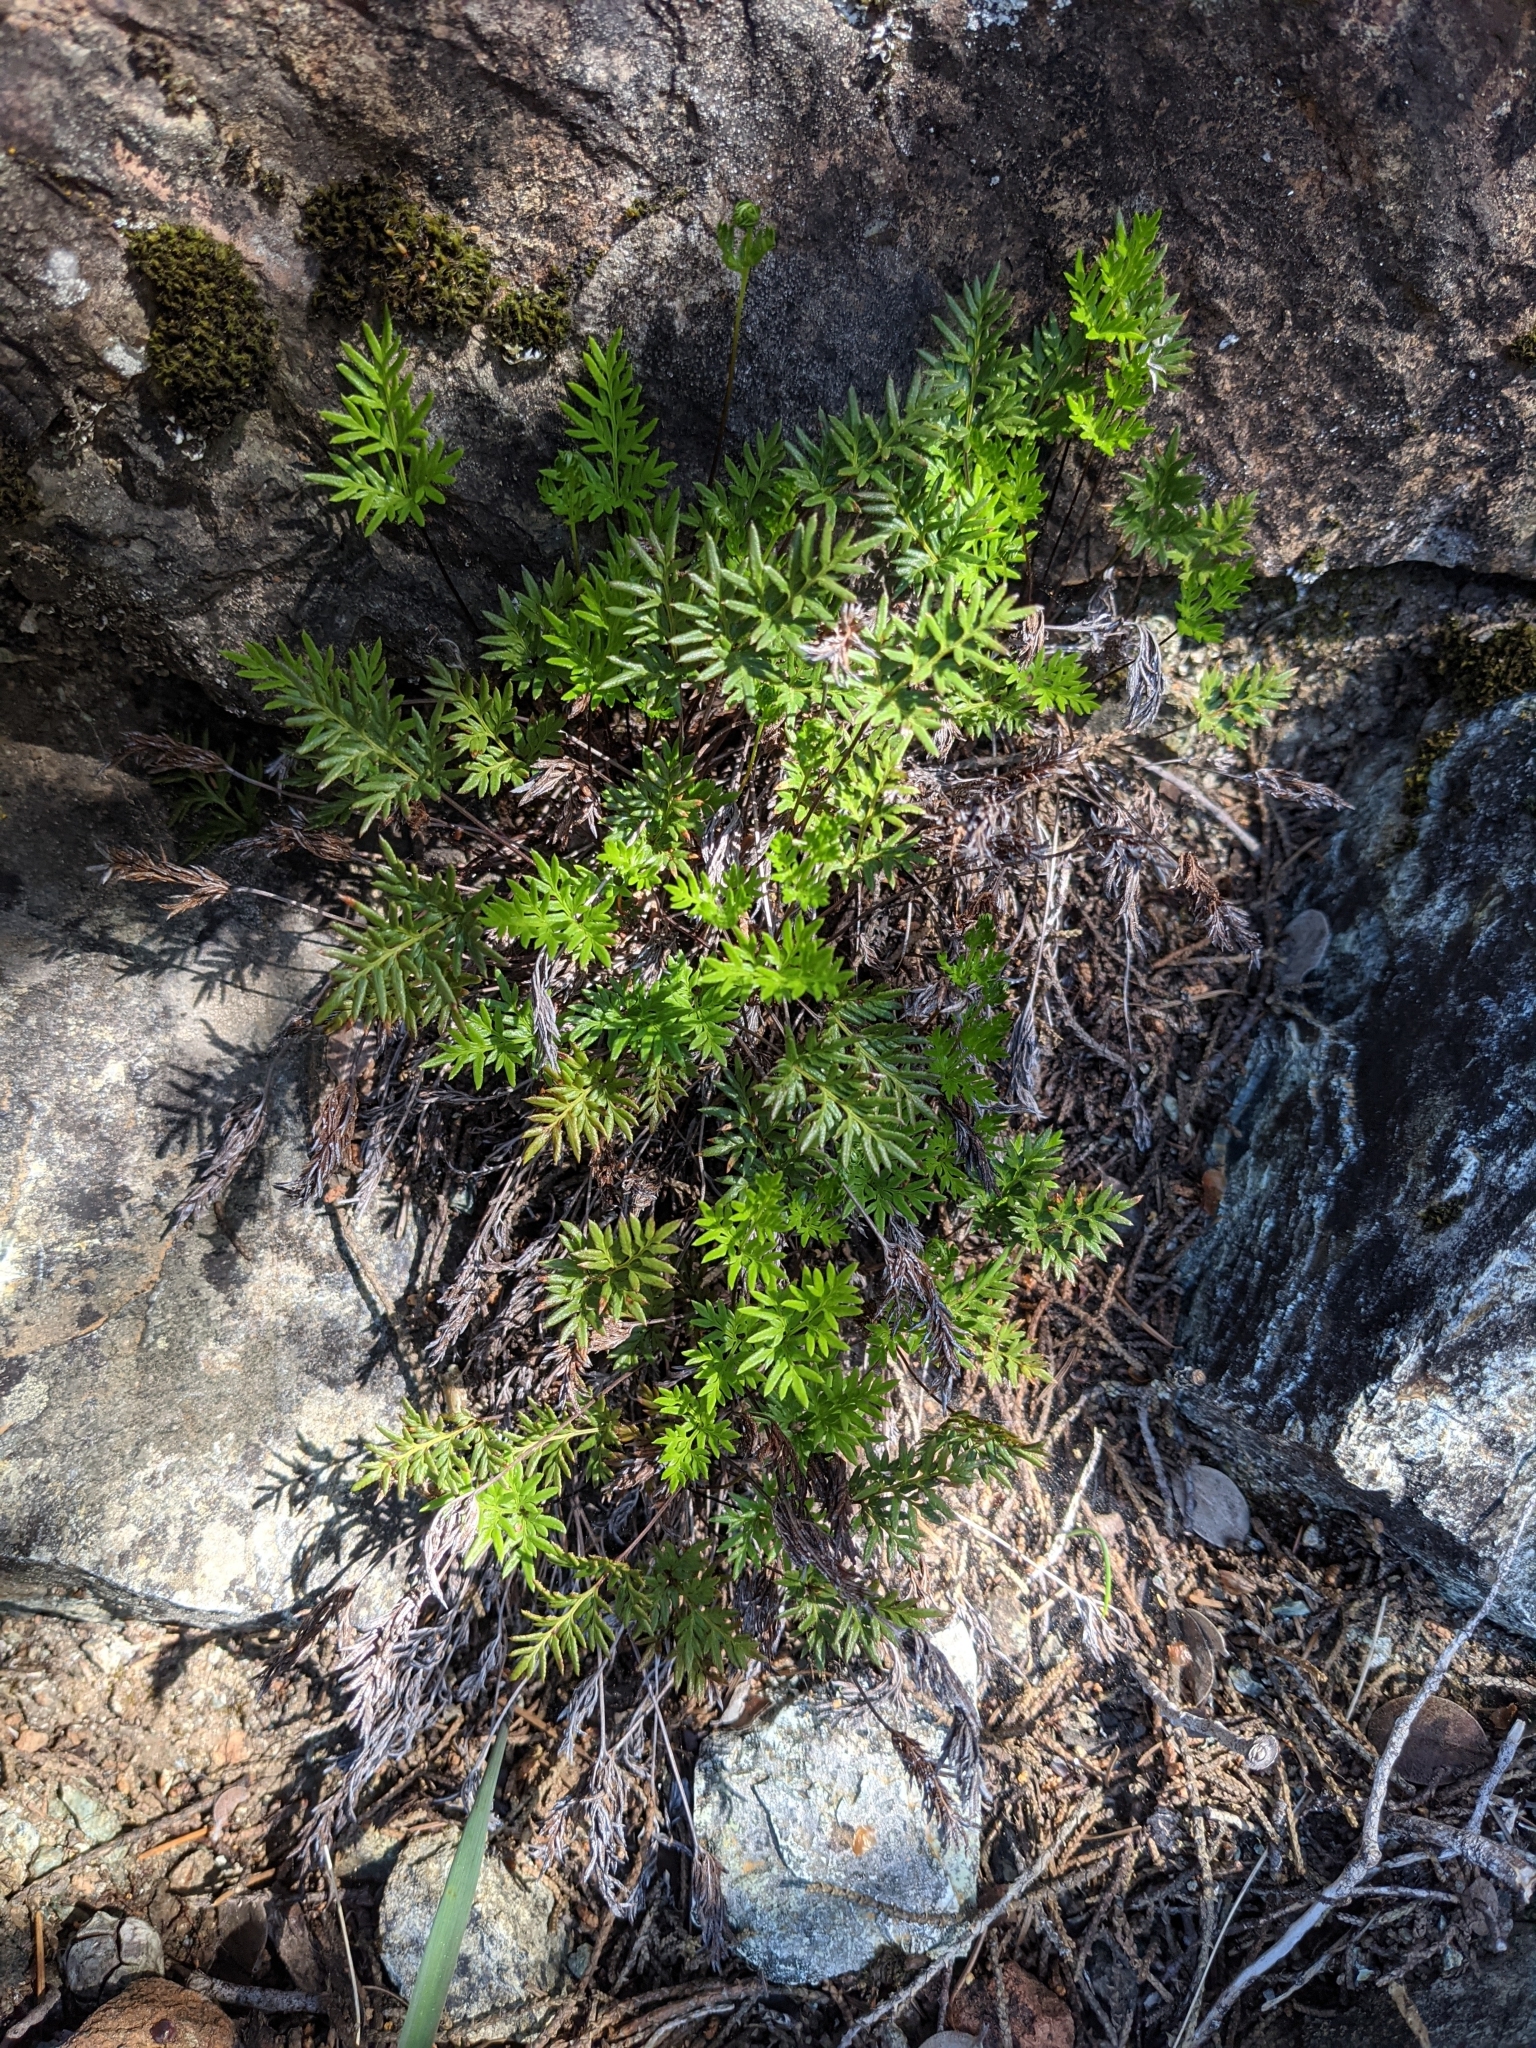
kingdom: Plantae
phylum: Tracheophyta
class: Polypodiopsida
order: Polypodiales
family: Pteridaceae
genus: Aspidotis
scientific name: Aspidotis densa
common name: Indian's dream
